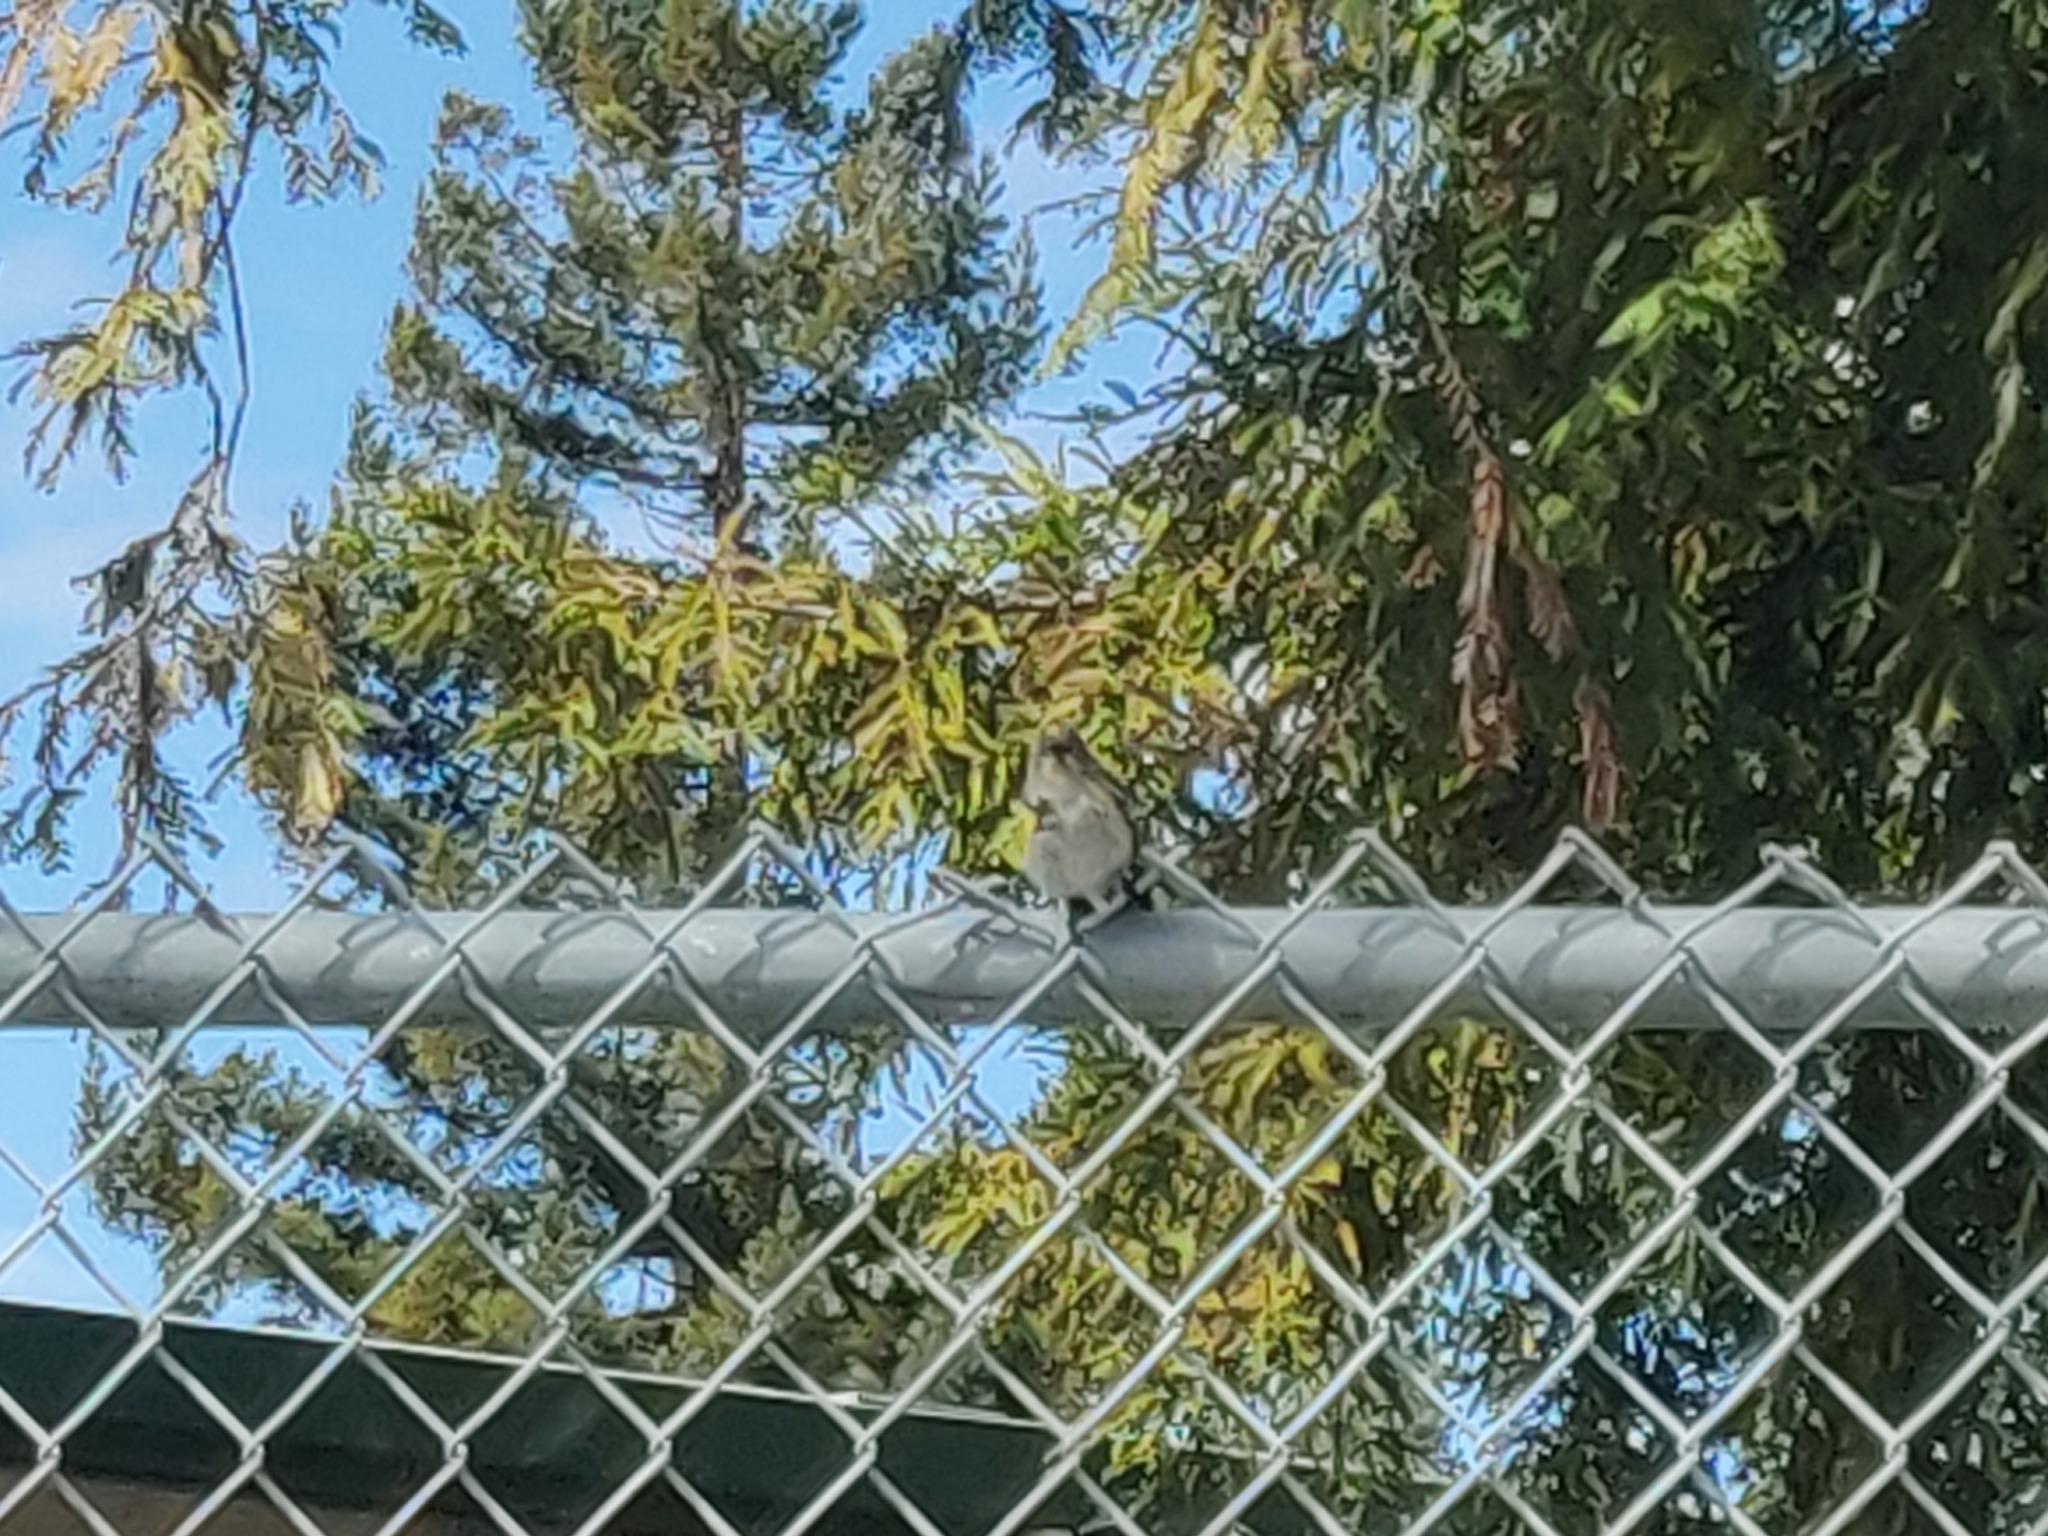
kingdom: Animalia
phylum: Chordata
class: Aves
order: Passeriformes
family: Parulidae
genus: Setophaga
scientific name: Setophaga coronata
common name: Myrtle warbler
